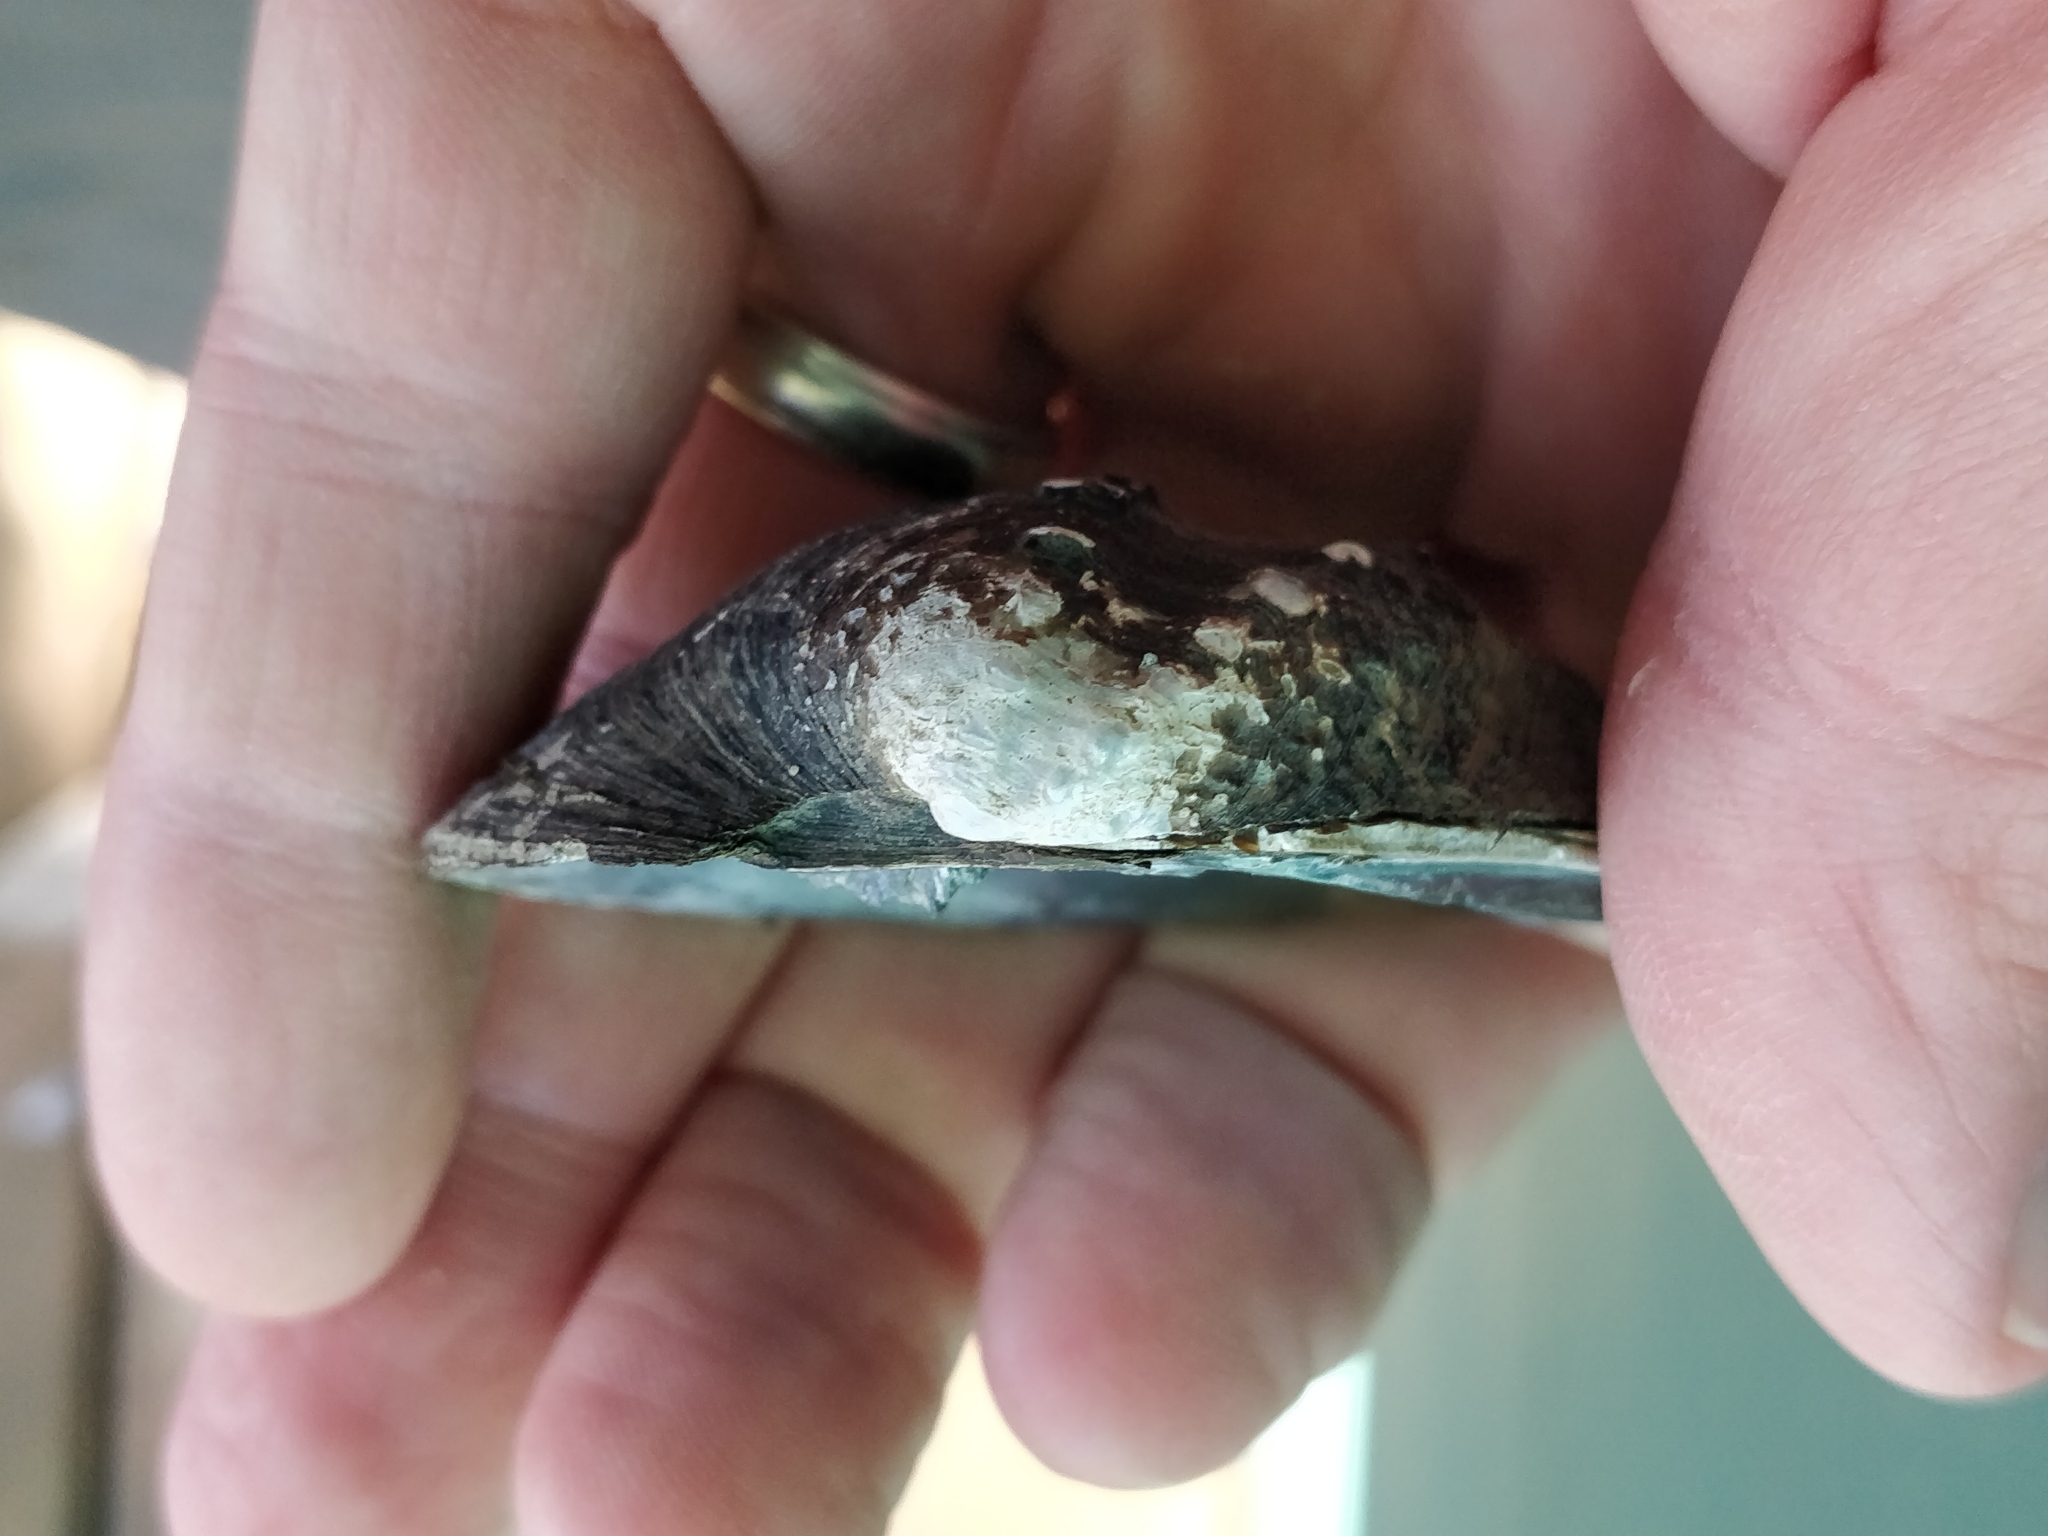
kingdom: Animalia
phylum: Mollusca
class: Bivalvia
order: Unionida
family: Unionidae
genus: Quadrula
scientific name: Quadrula quadrula
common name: Mapleleaf
